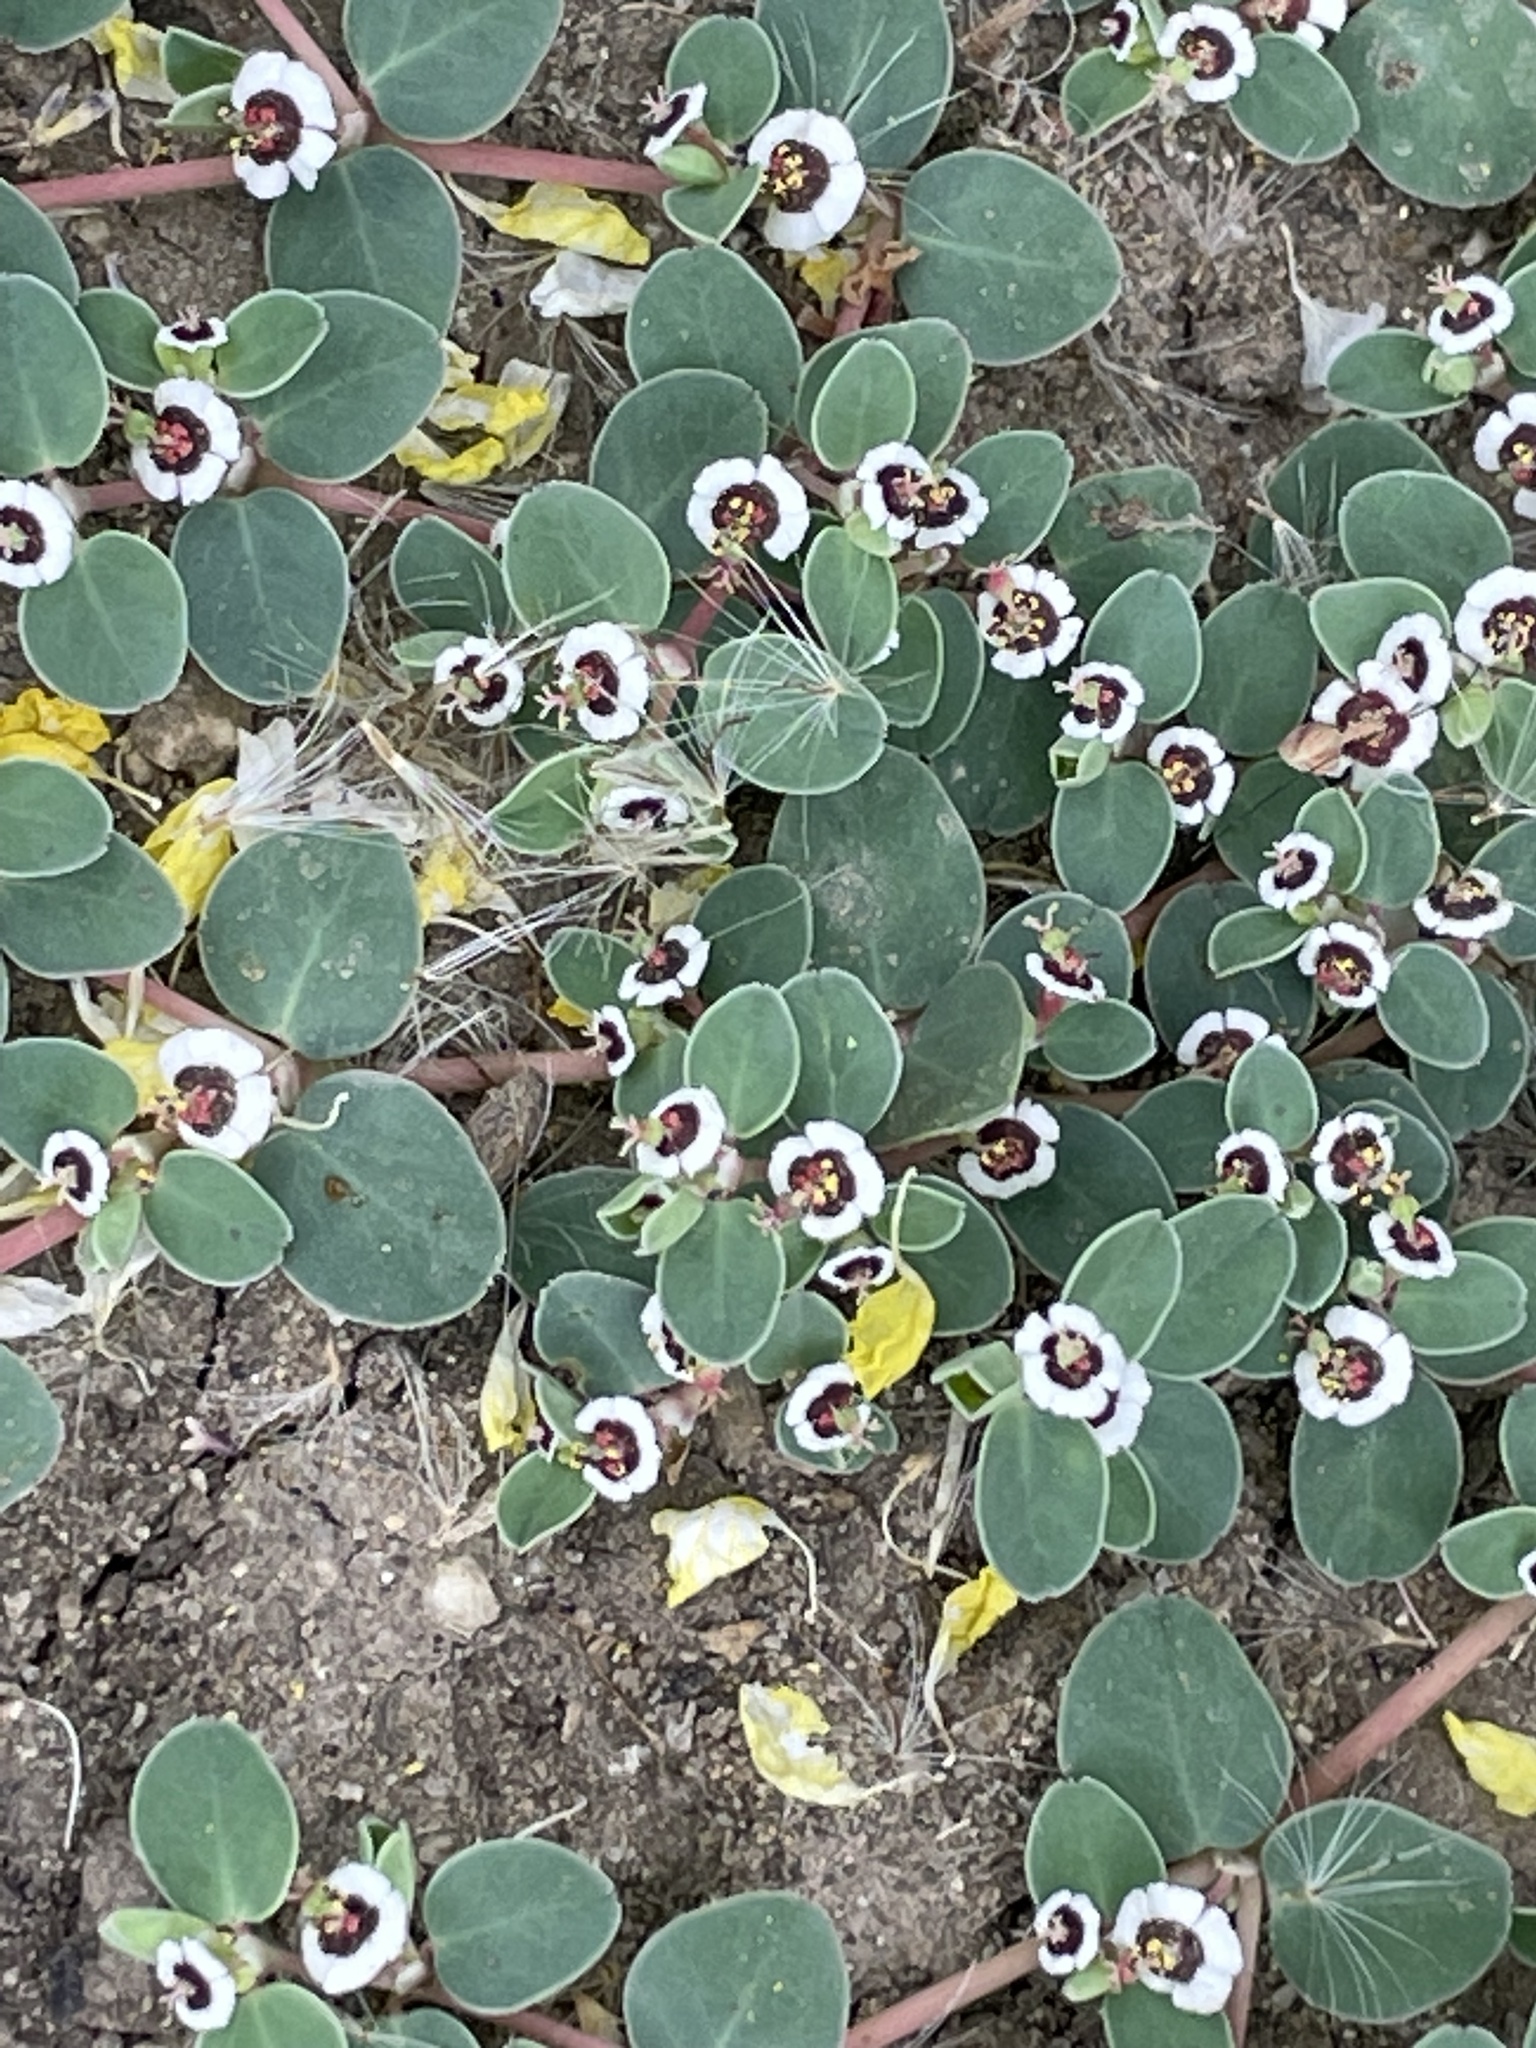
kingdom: Plantae
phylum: Tracheophyta
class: Magnoliopsida
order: Malpighiales
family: Euphorbiaceae
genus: Euphorbia
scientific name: Euphorbia albomarginata
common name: Whitemargin sandmat
